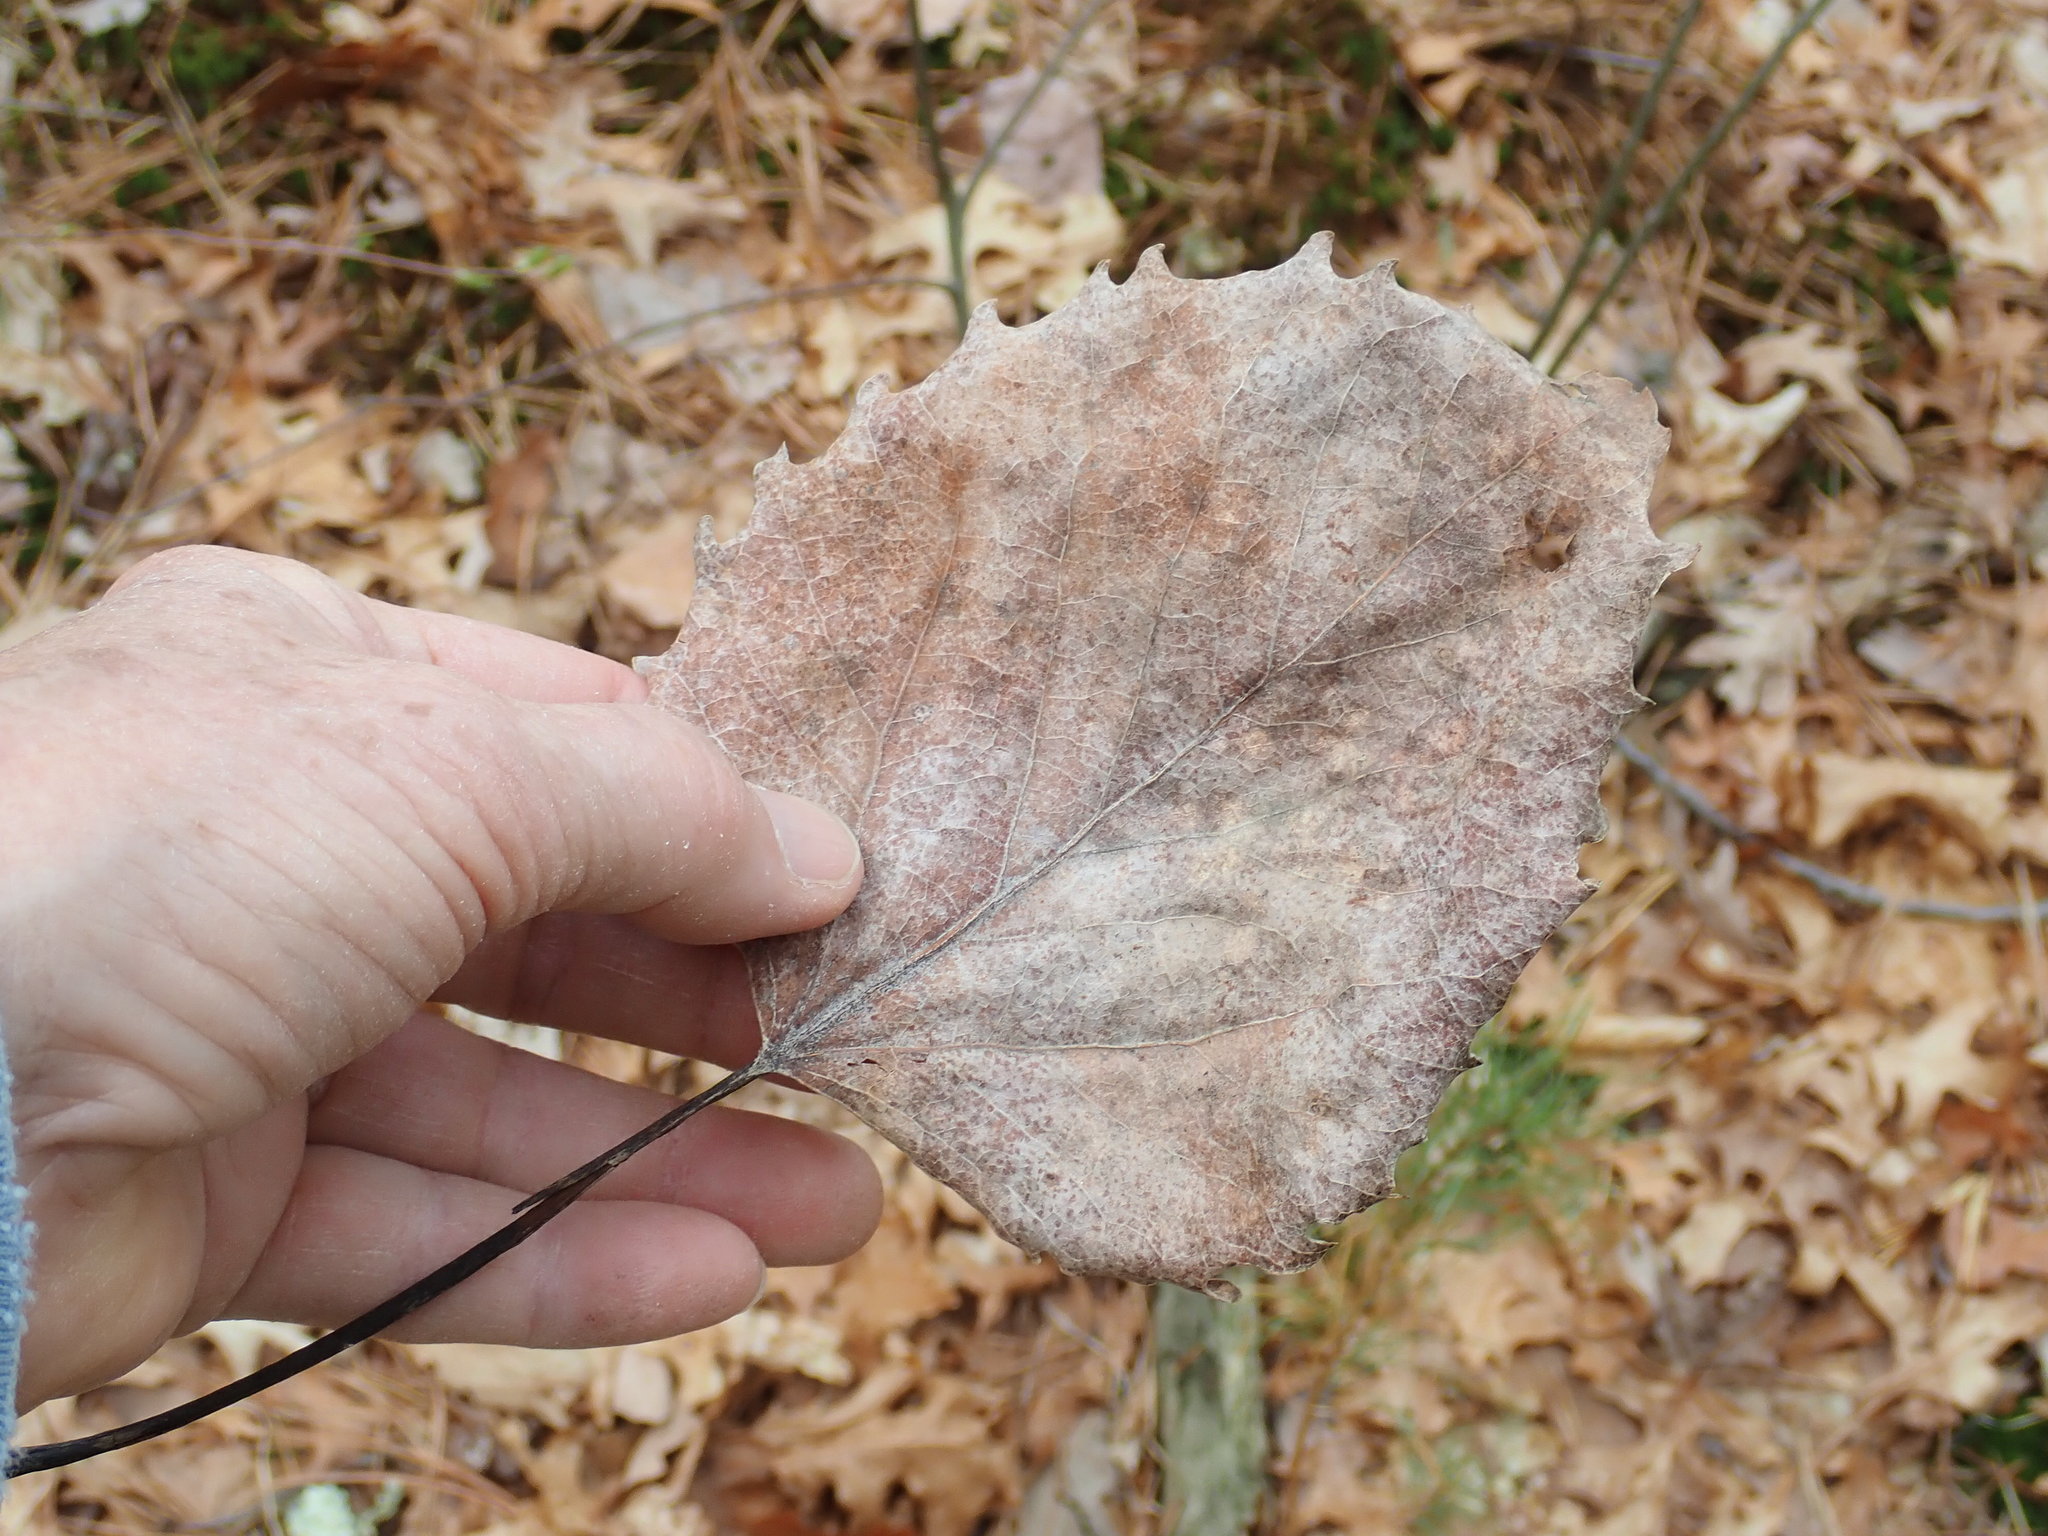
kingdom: Plantae
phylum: Tracheophyta
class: Magnoliopsida
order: Malpighiales
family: Salicaceae
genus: Populus
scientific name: Populus grandidentata
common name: Bigtooth aspen
